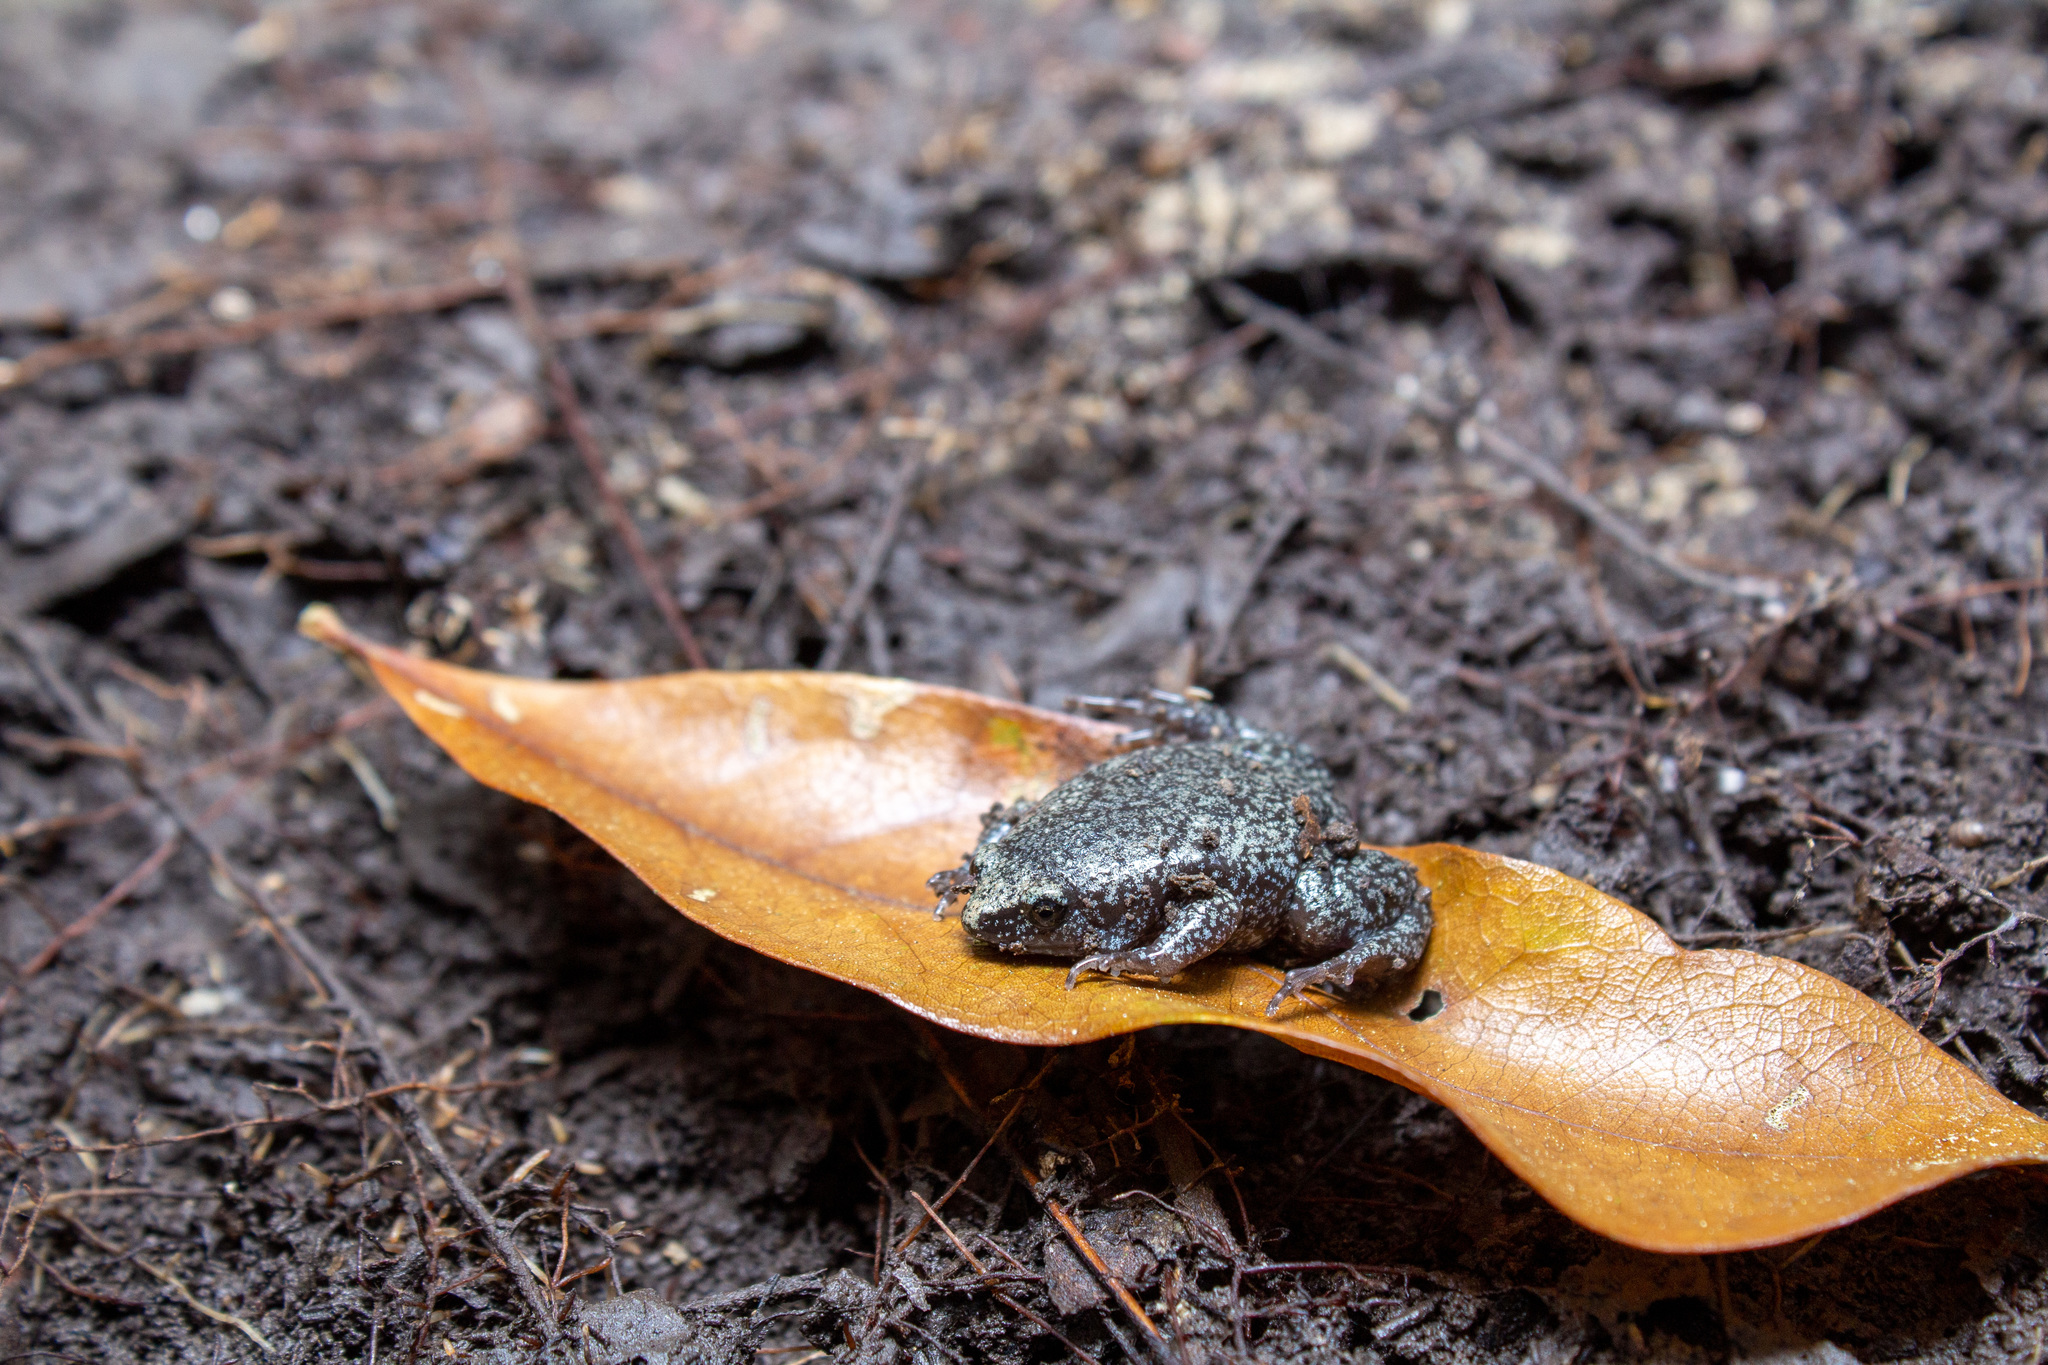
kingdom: Animalia
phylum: Chordata
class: Amphibia
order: Anura
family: Microhylidae
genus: Gastrophryne
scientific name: Gastrophryne carolinensis
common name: Eastern narrowmouth toad
